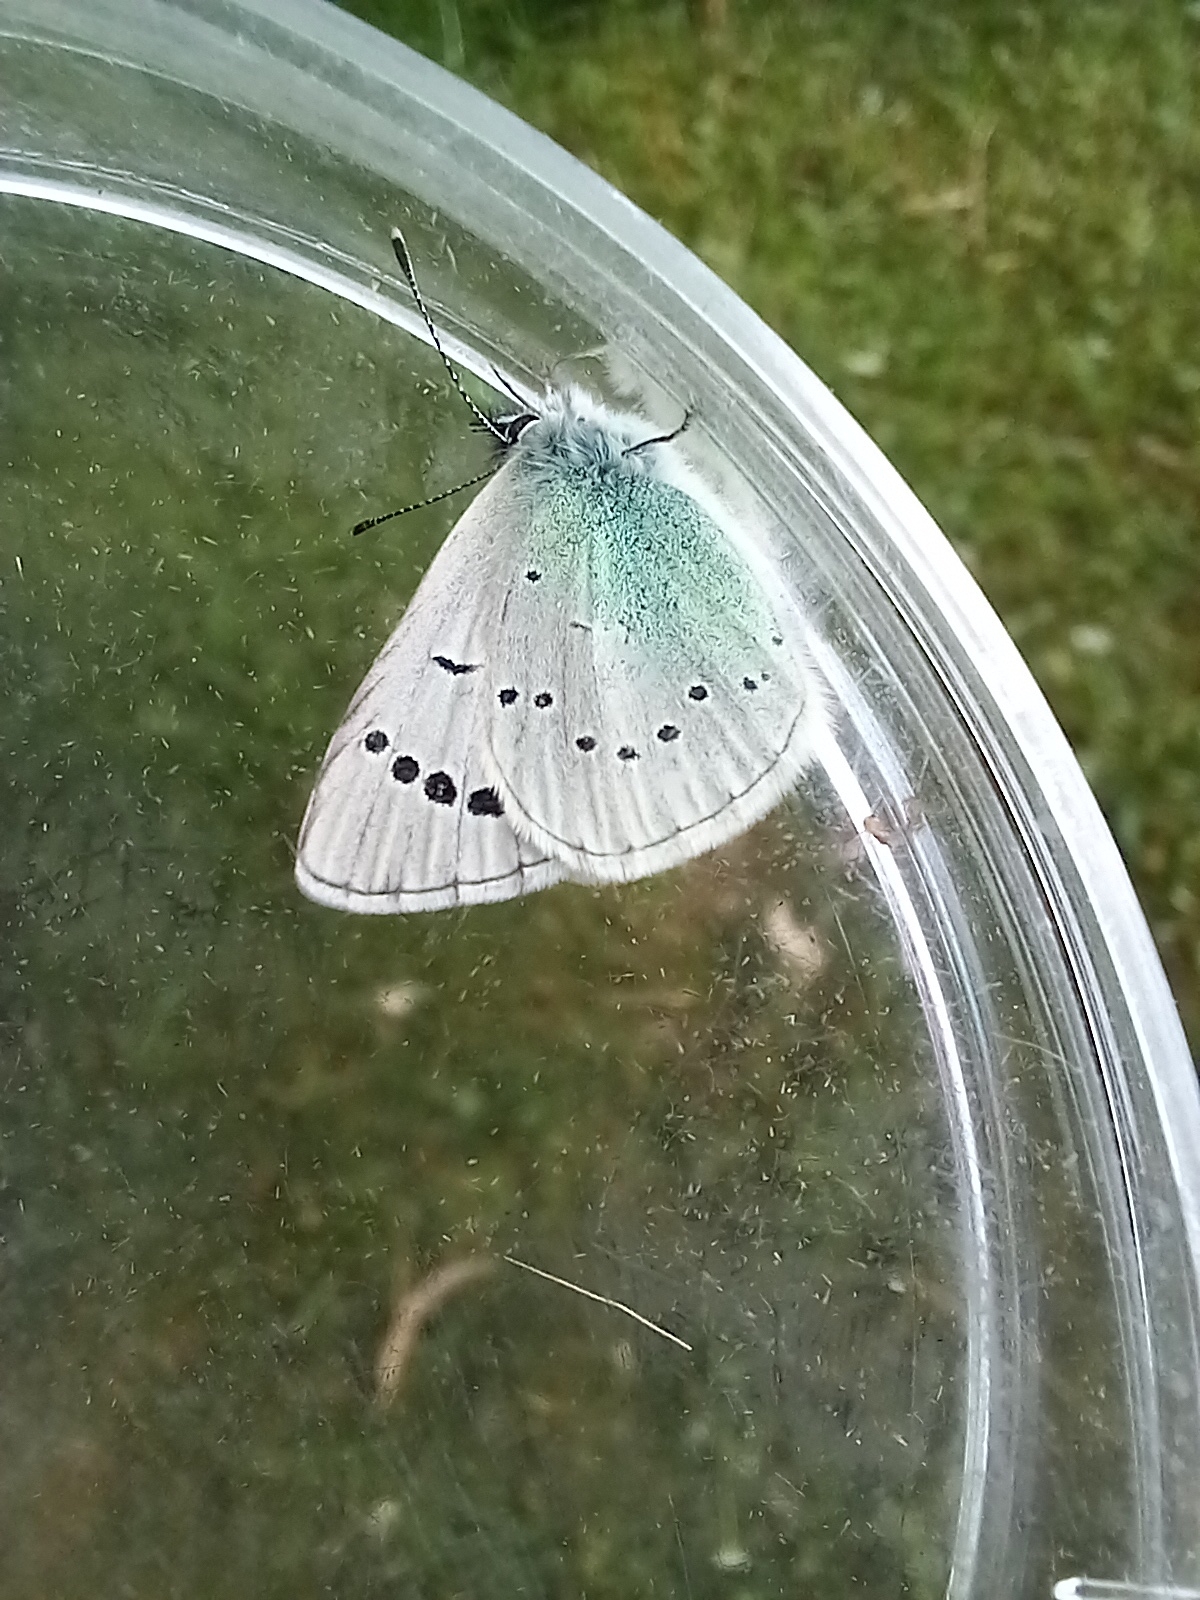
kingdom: Animalia
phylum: Arthropoda
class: Insecta
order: Lepidoptera
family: Lycaenidae
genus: Glaucopsyche
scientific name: Glaucopsyche alexis
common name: Green-underside blue
